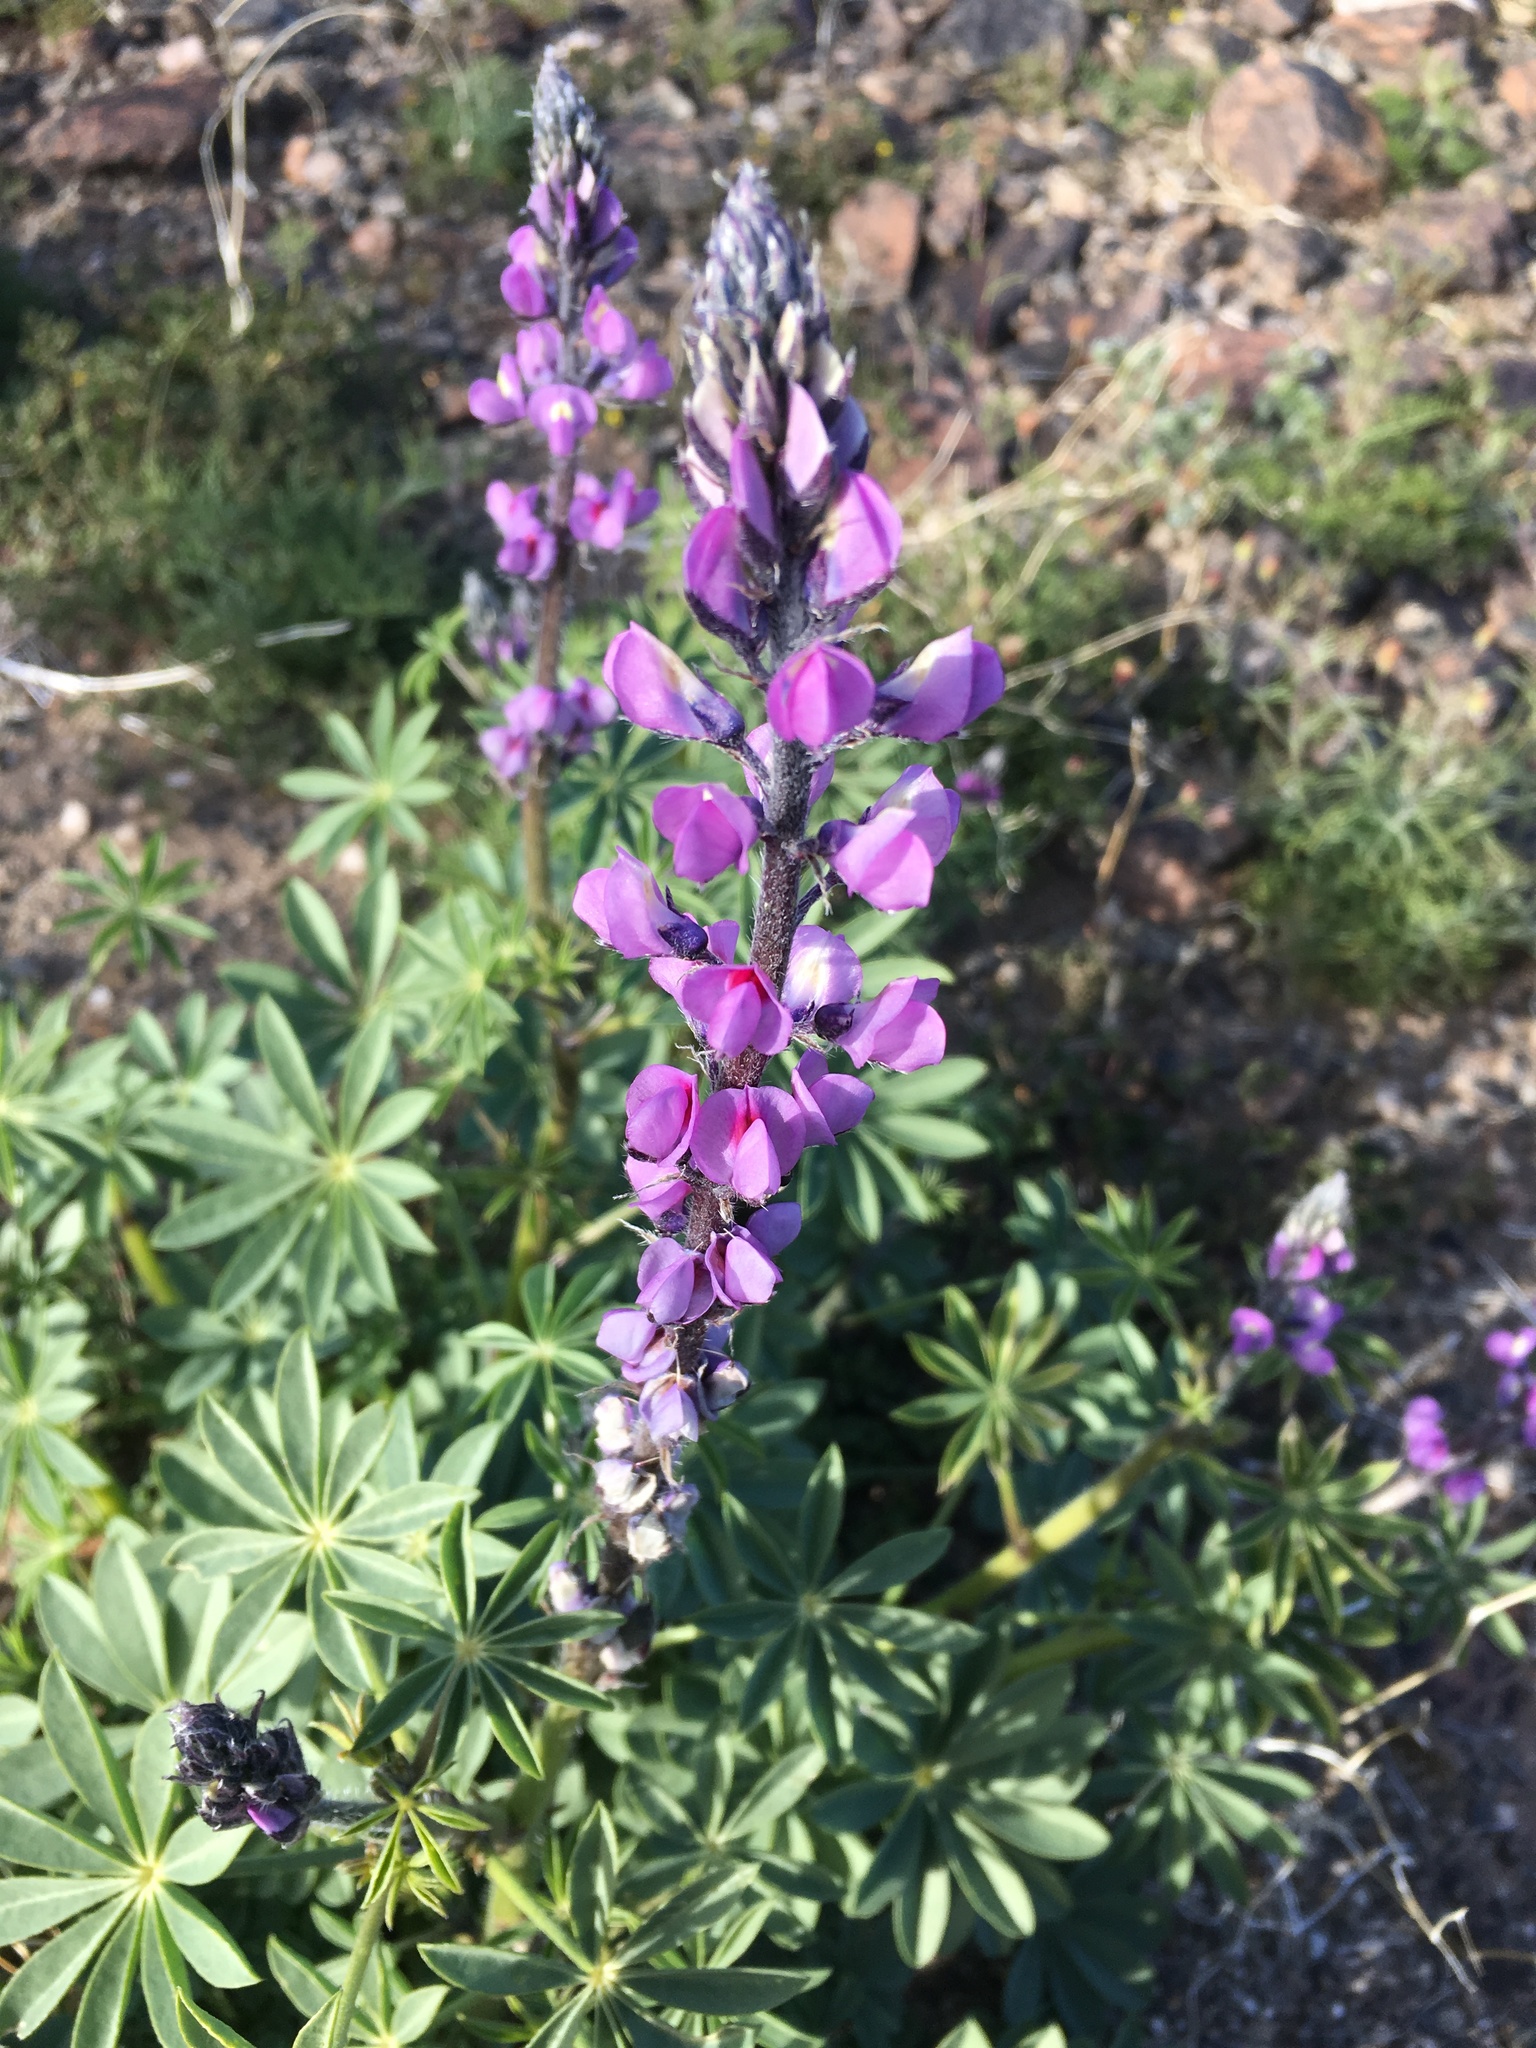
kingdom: Plantae
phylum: Tracheophyta
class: Magnoliopsida
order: Fabales
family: Fabaceae
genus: Lupinus
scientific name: Lupinus arizonicus
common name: Arizona lupine
